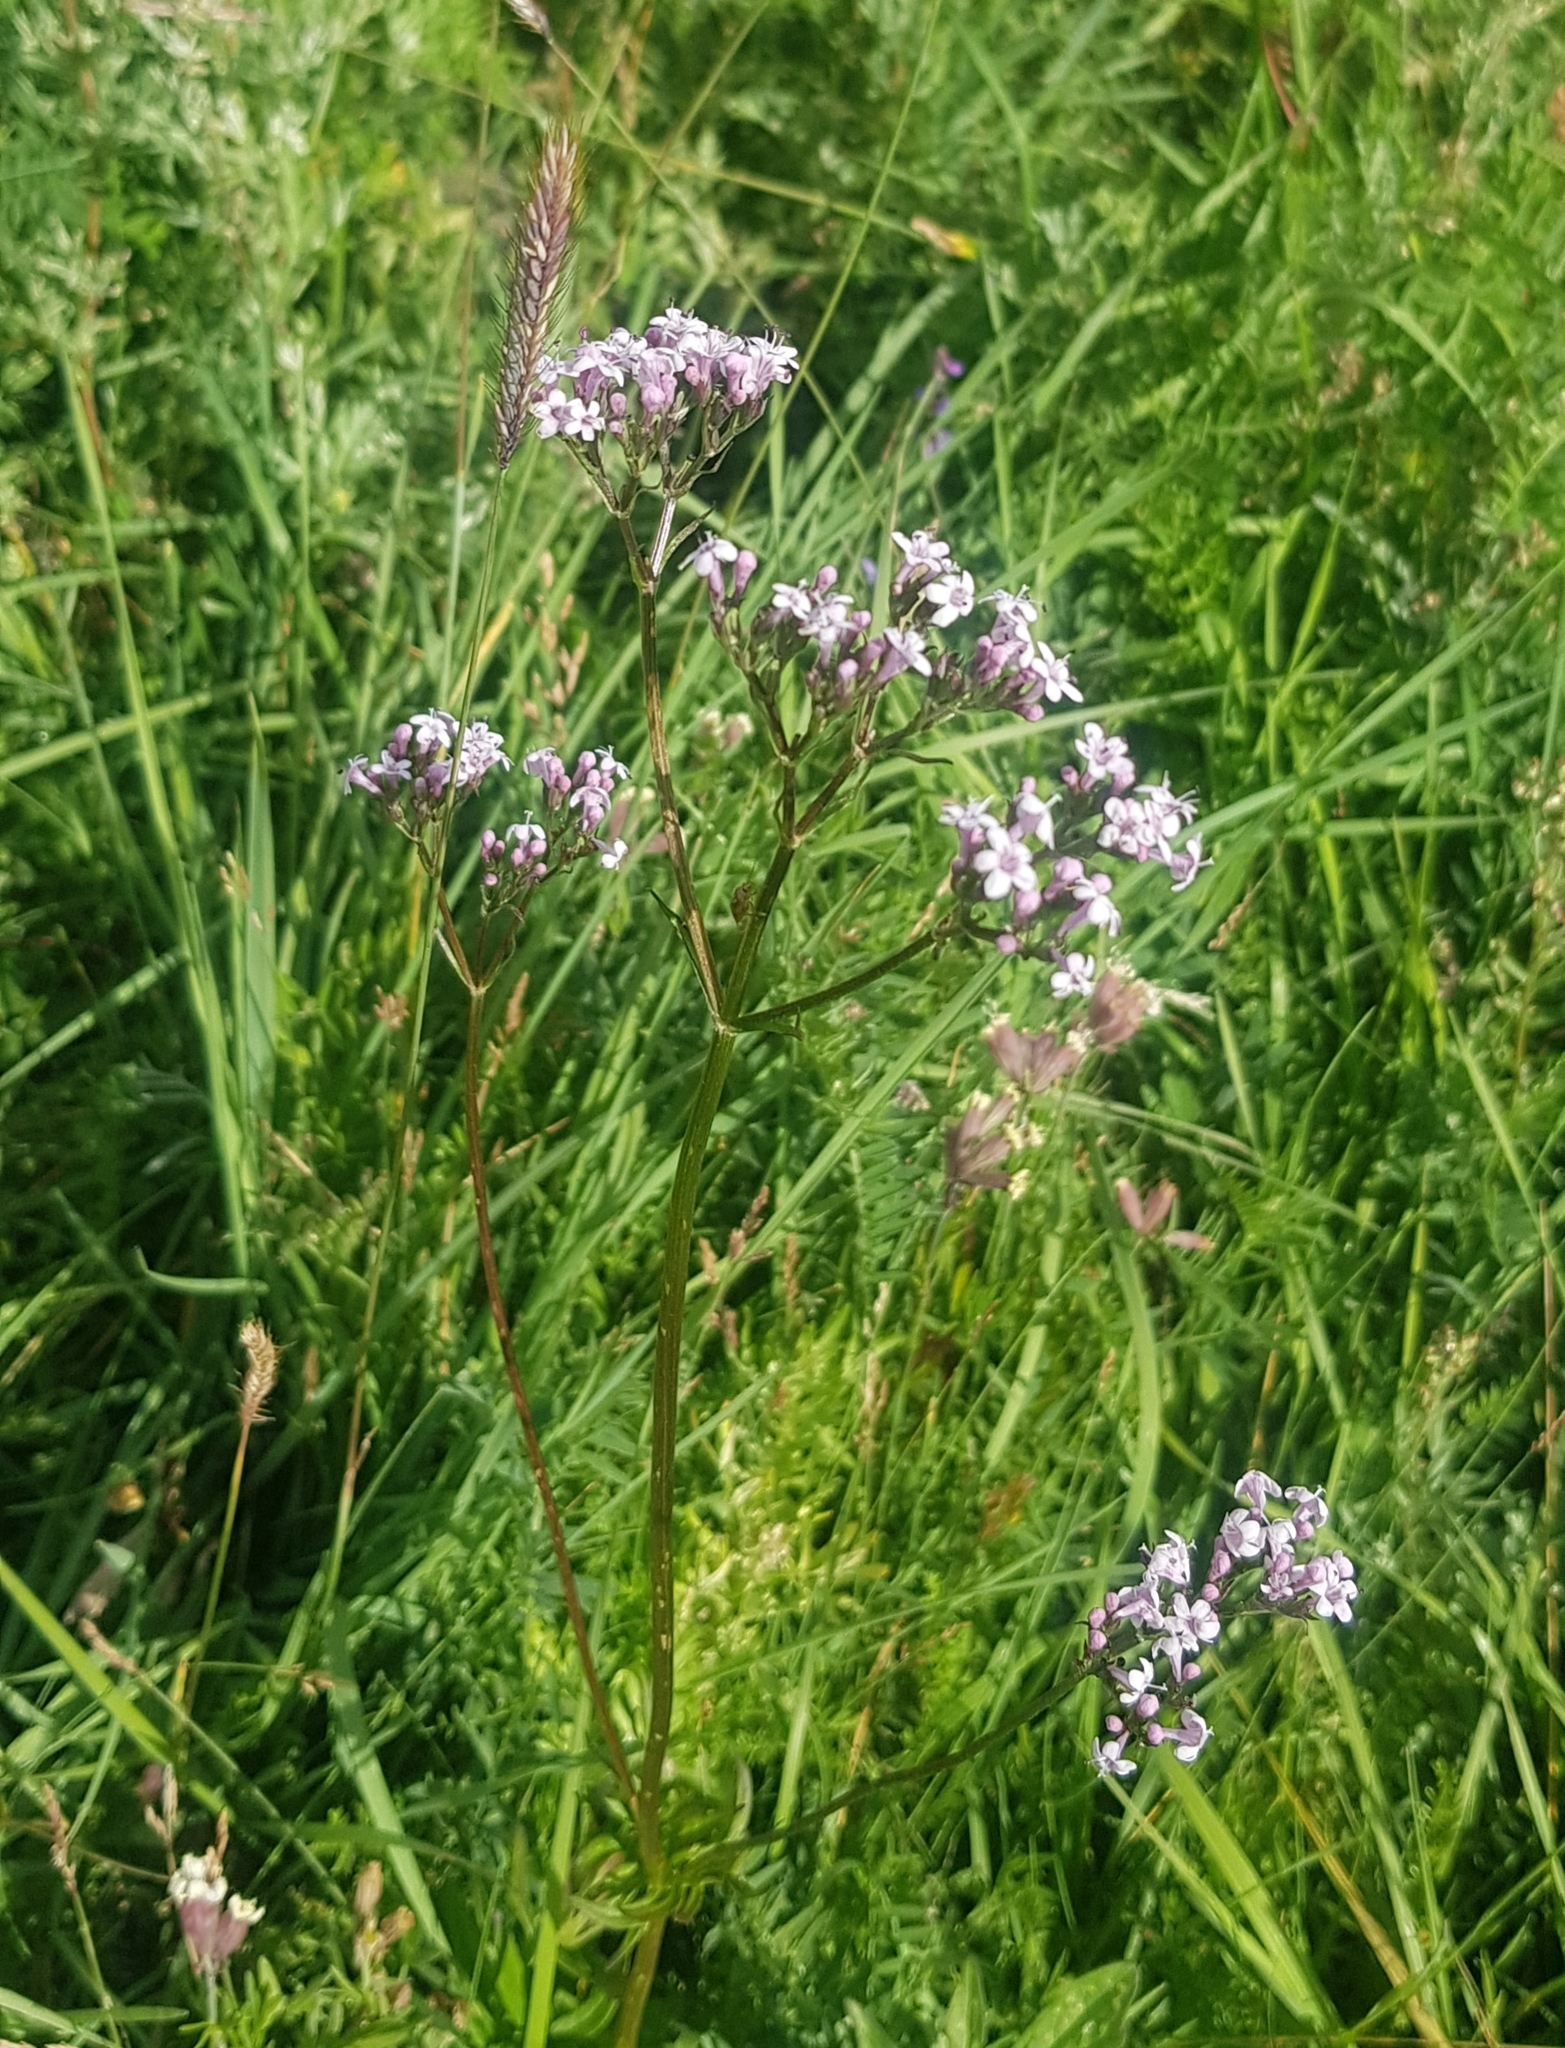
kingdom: Plantae
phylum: Tracheophyta
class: Magnoliopsida
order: Dipsacales
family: Caprifoliaceae
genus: Valeriana
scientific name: Valeriana officinalis
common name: Common valerian
